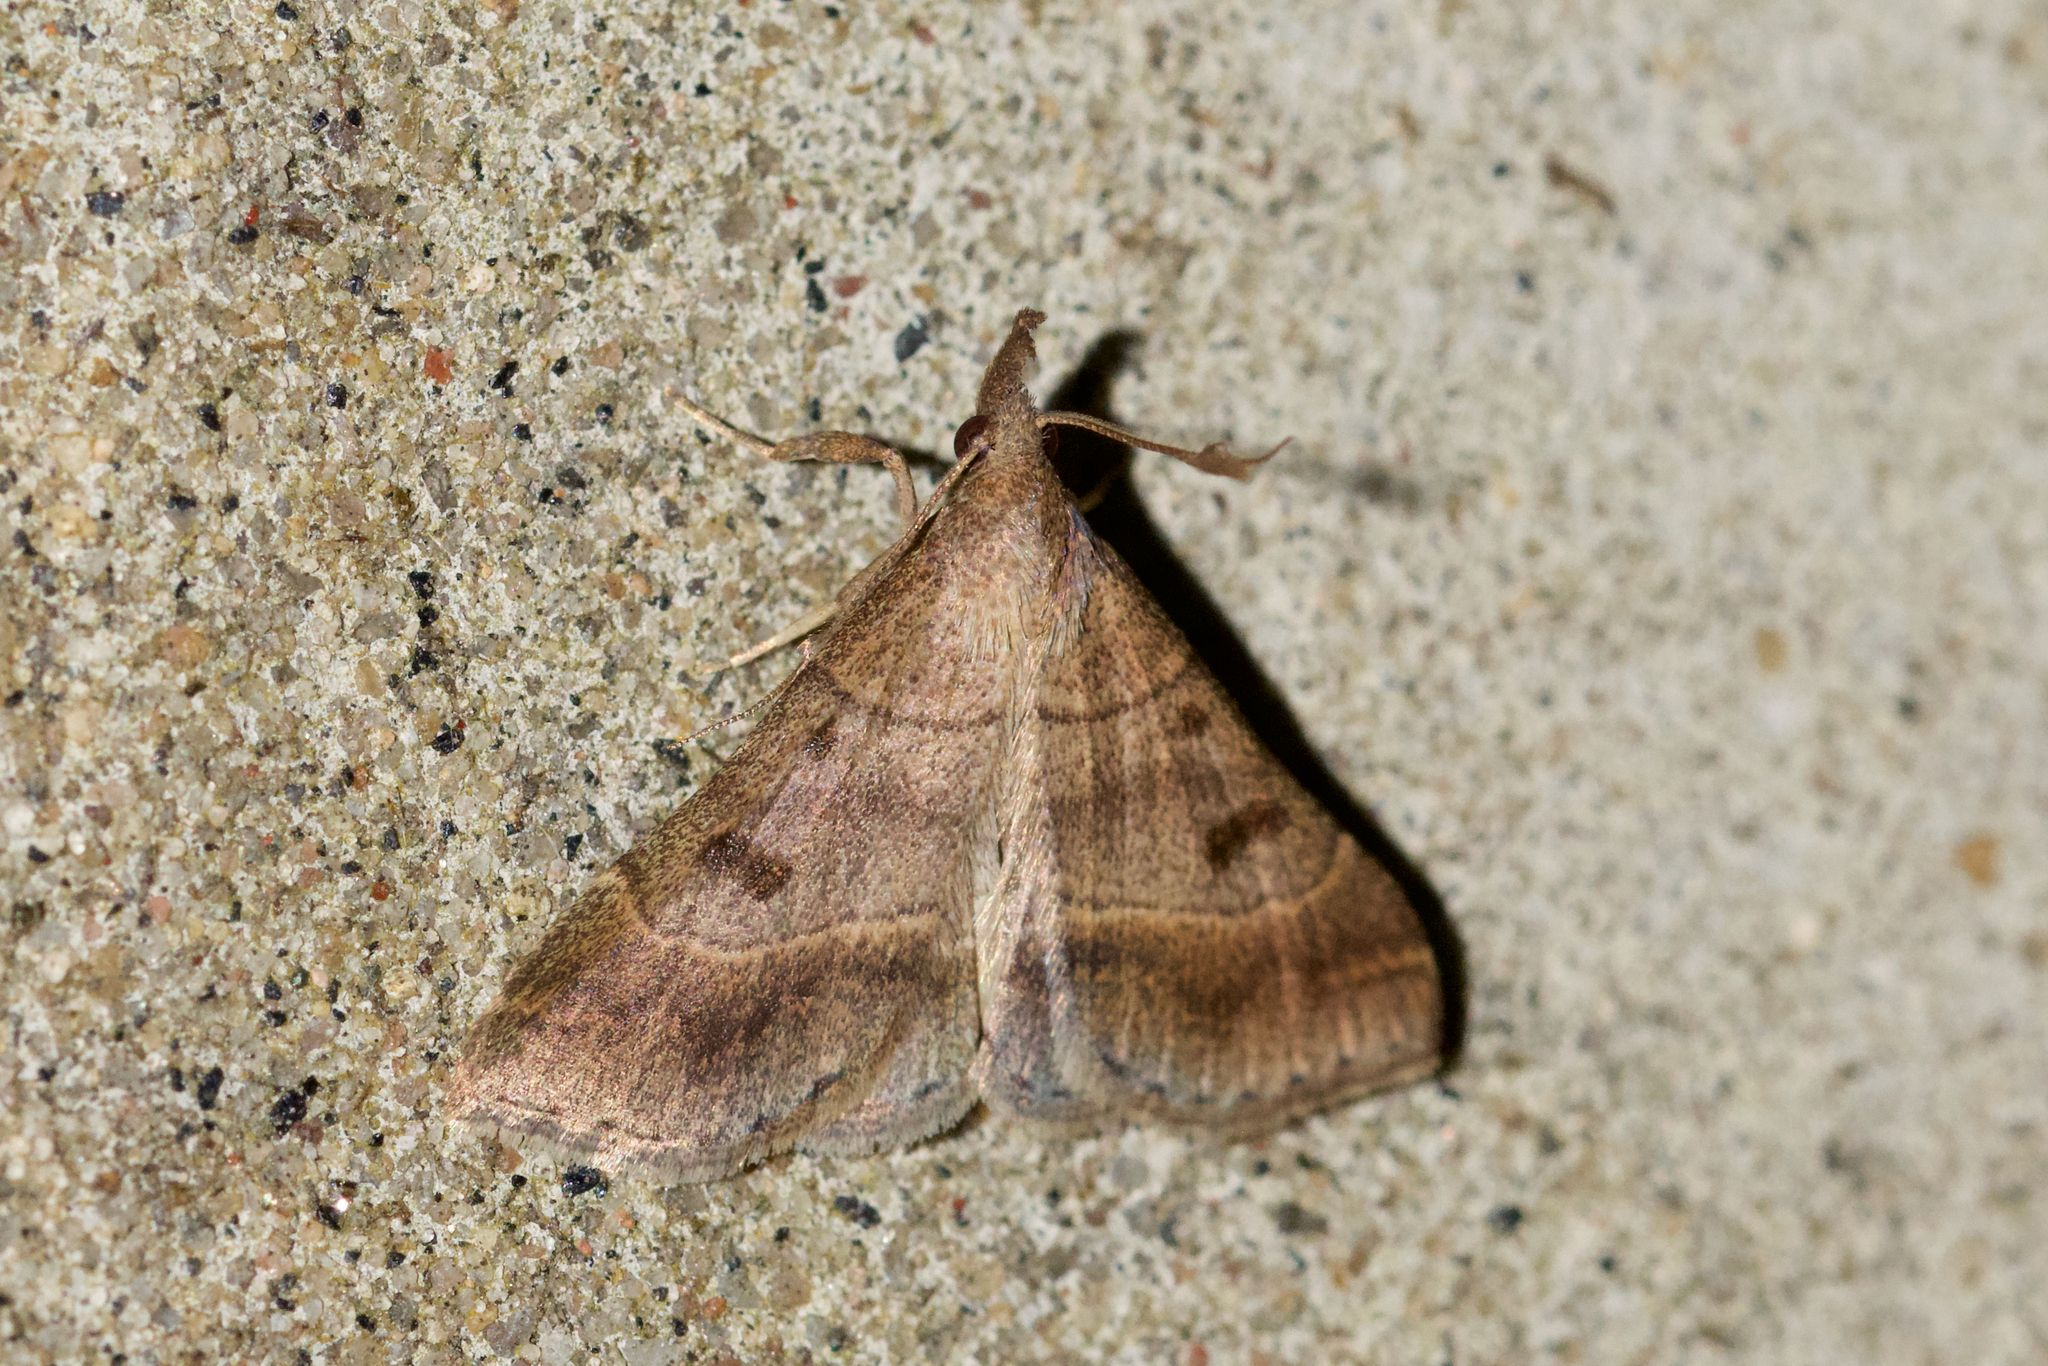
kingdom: Animalia
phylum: Arthropoda
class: Insecta
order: Lepidoptera
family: Erebidae
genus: Renia
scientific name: Renia flavipunctalis
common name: Yellow-spotted renia moth
